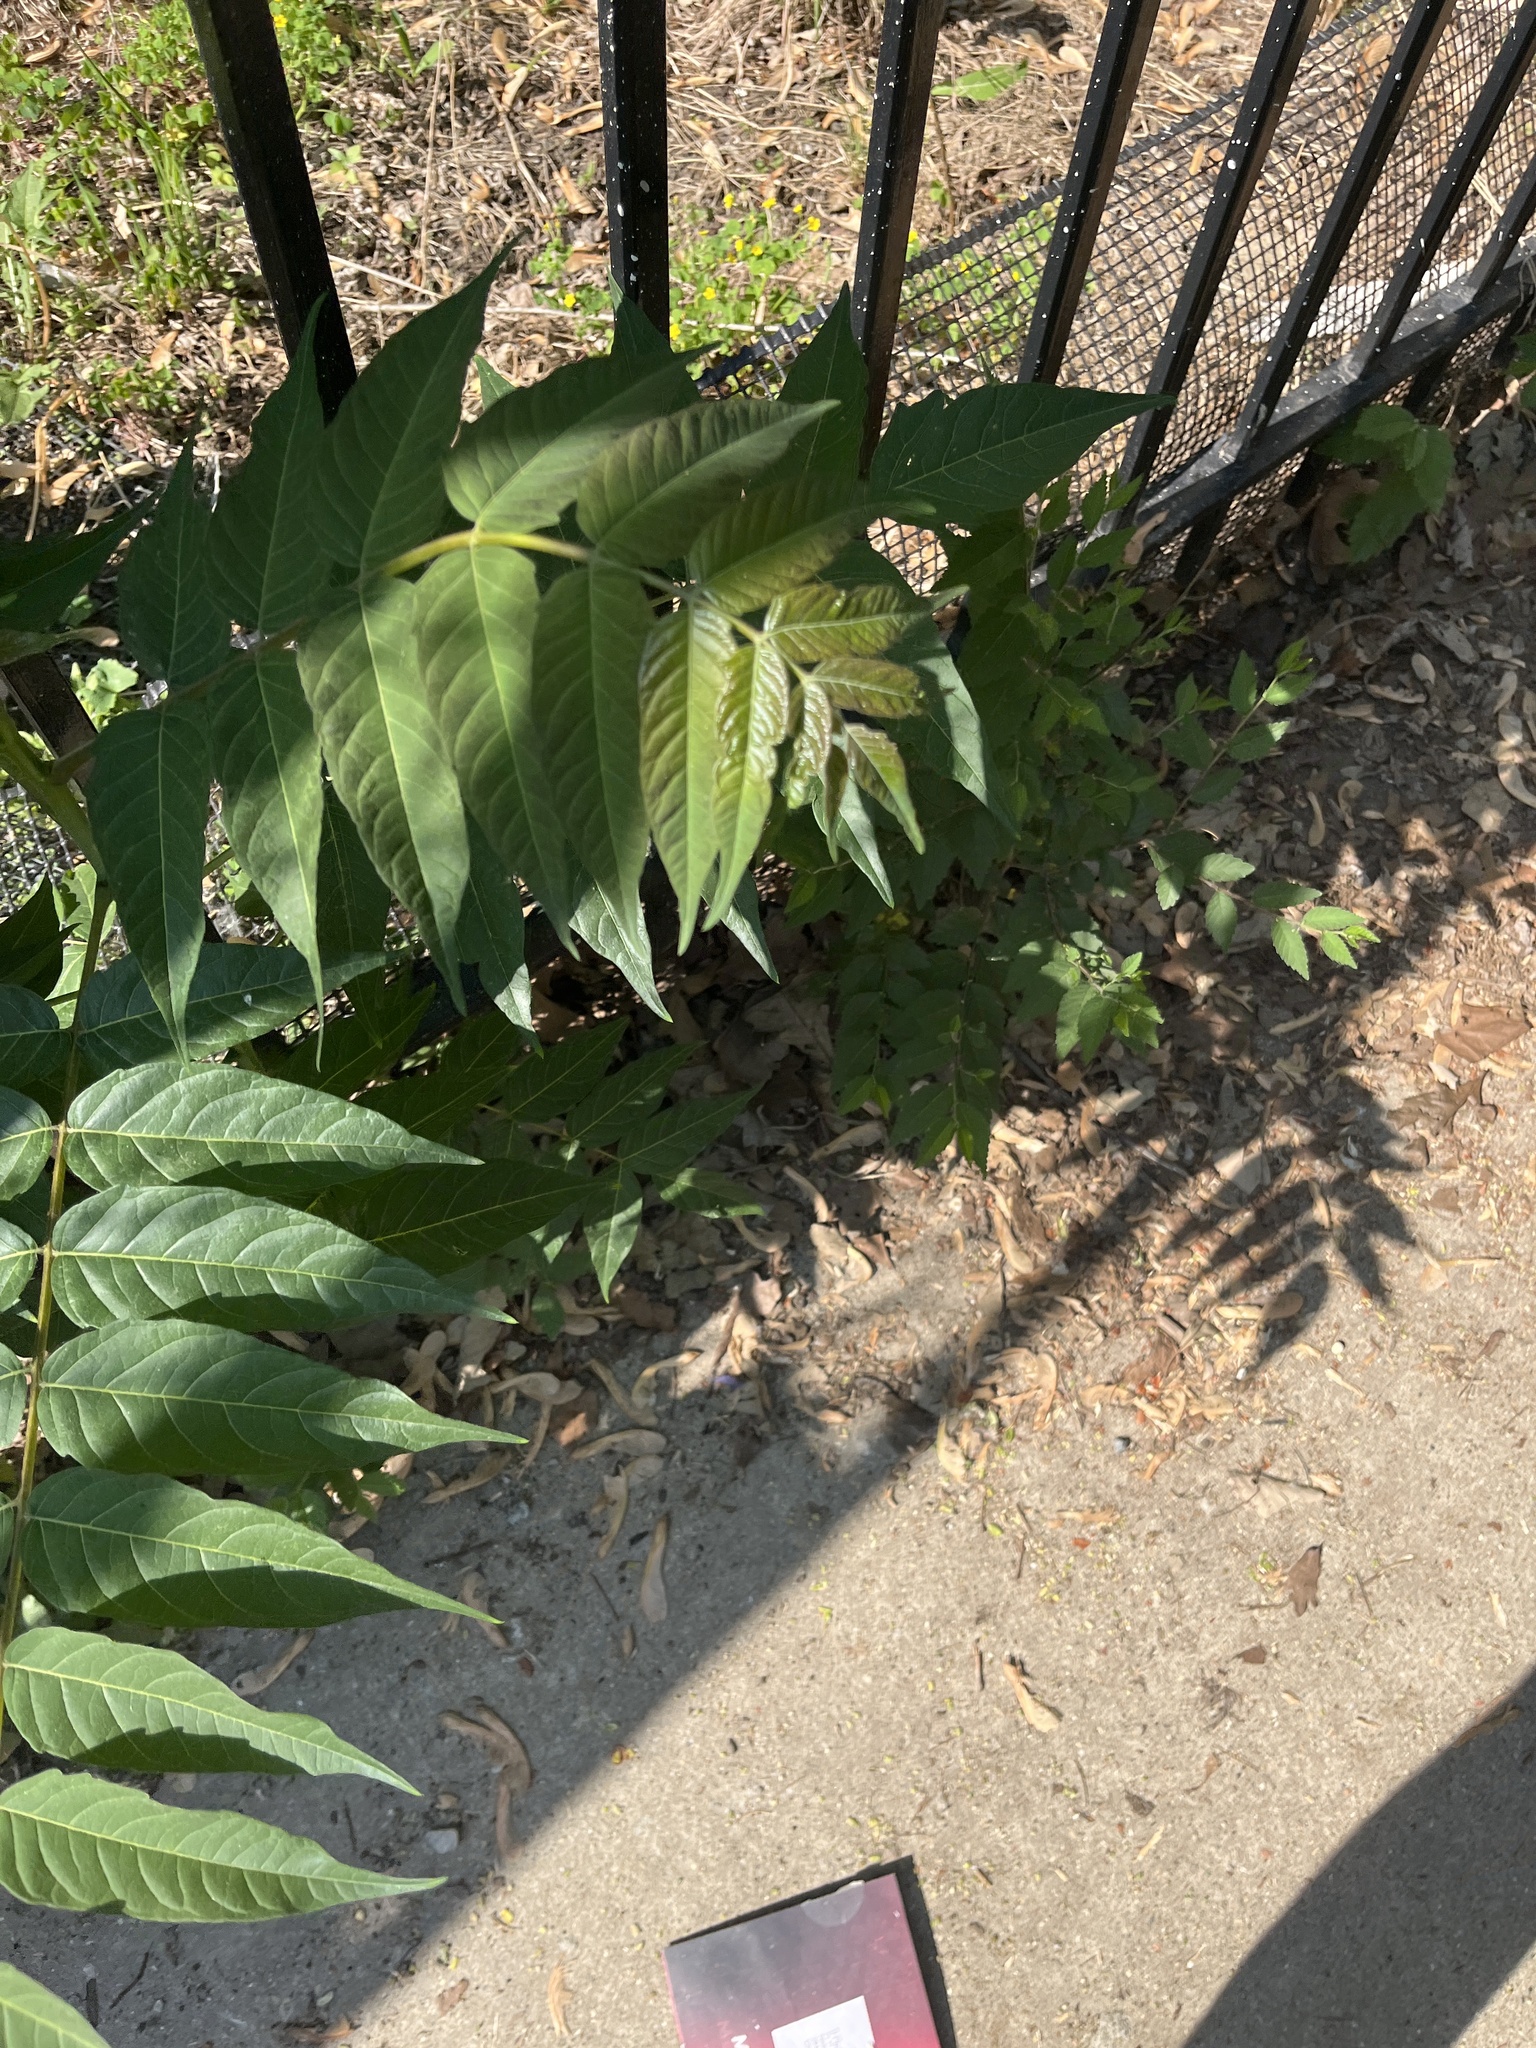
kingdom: Plantae
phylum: Tracheophyta
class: Magnoliopsida
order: Sapindales
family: Simaroubaceae
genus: Ailanthus
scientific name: Ailanthus altissima
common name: Tree-of-heaven
